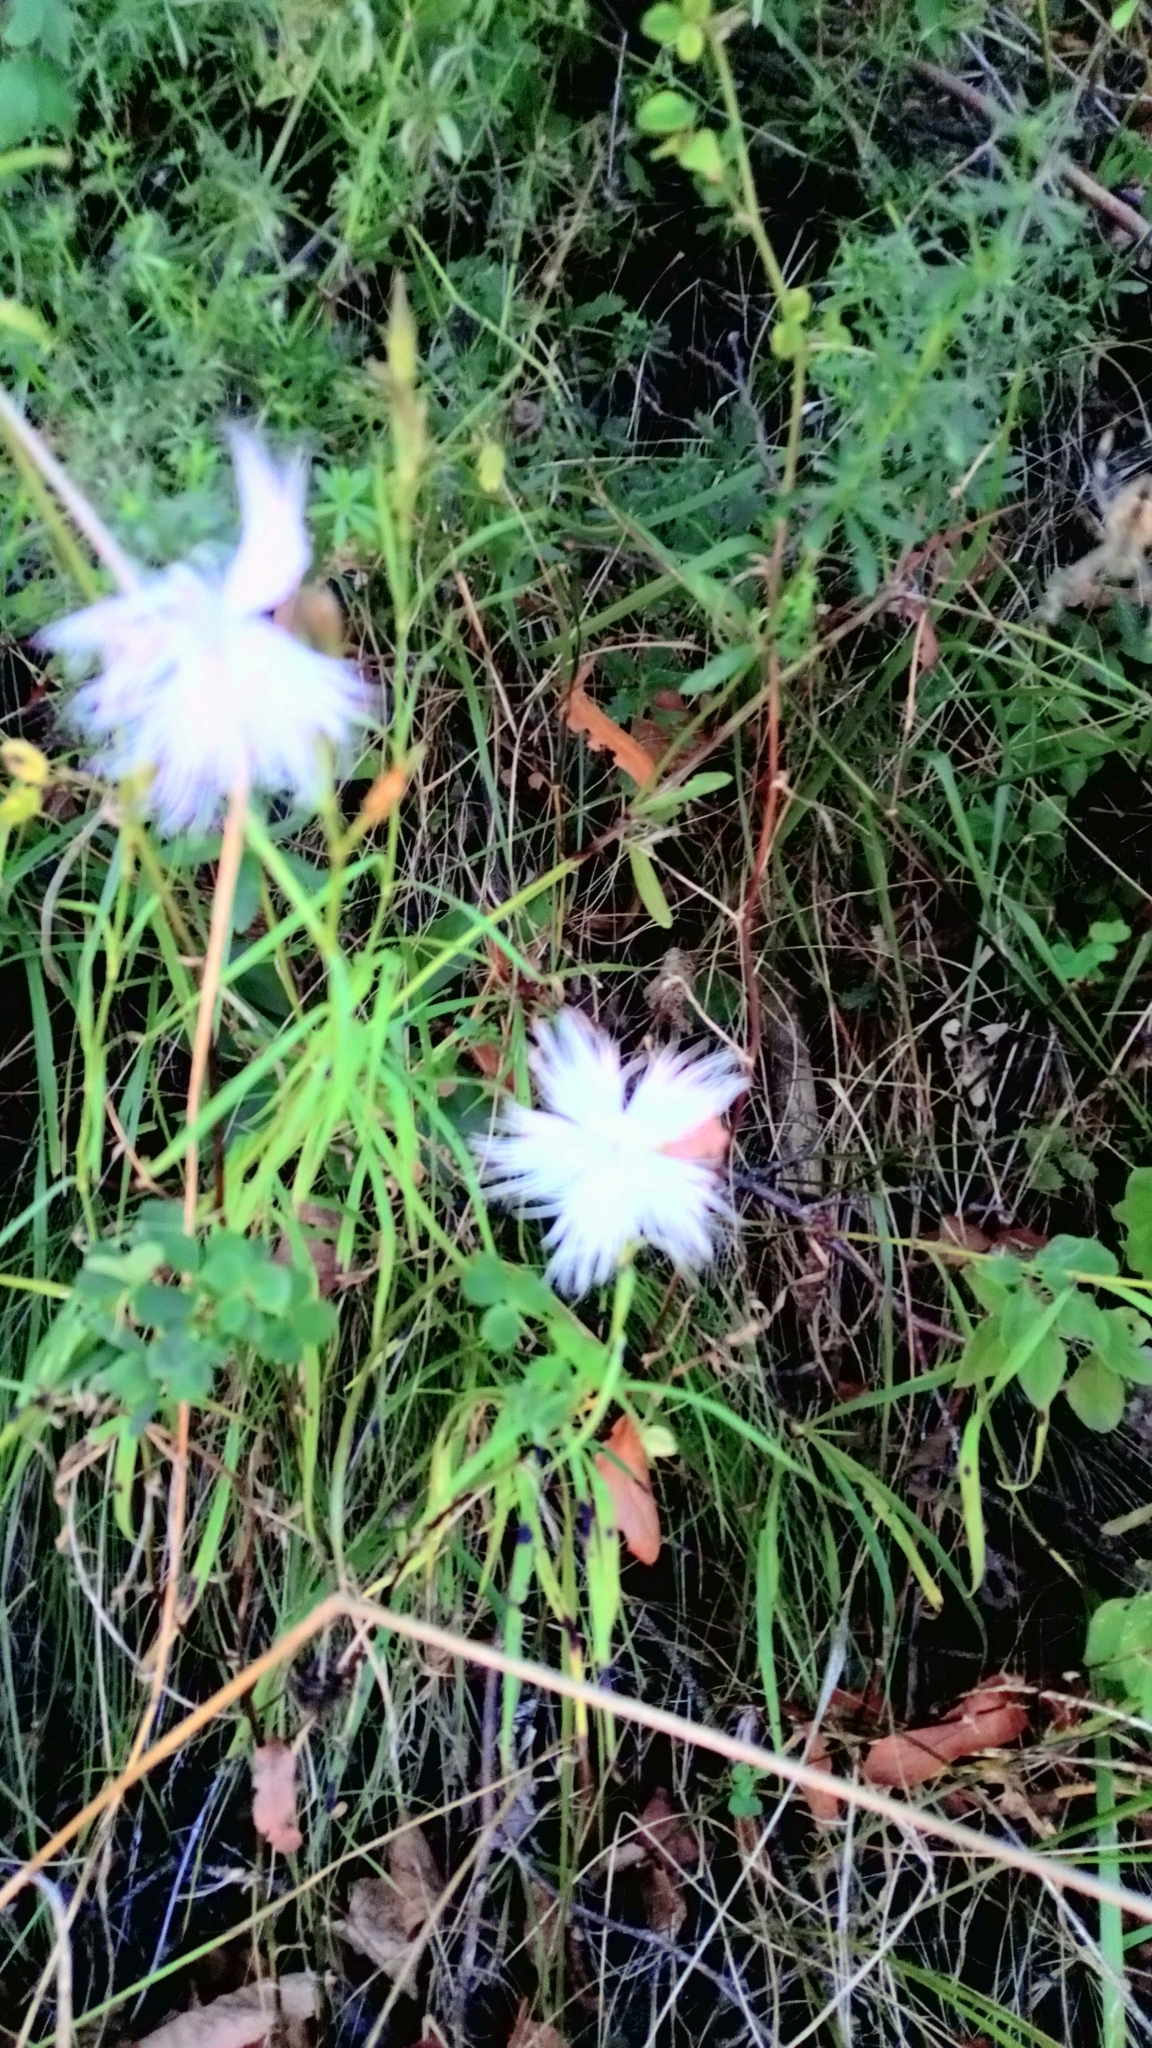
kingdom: Plantae
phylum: Tracheophyta
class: Magnoliopsida
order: Caryophyllales
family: Caryophyllaceae
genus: Dianthus
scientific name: Dianthus hyssopifolius
